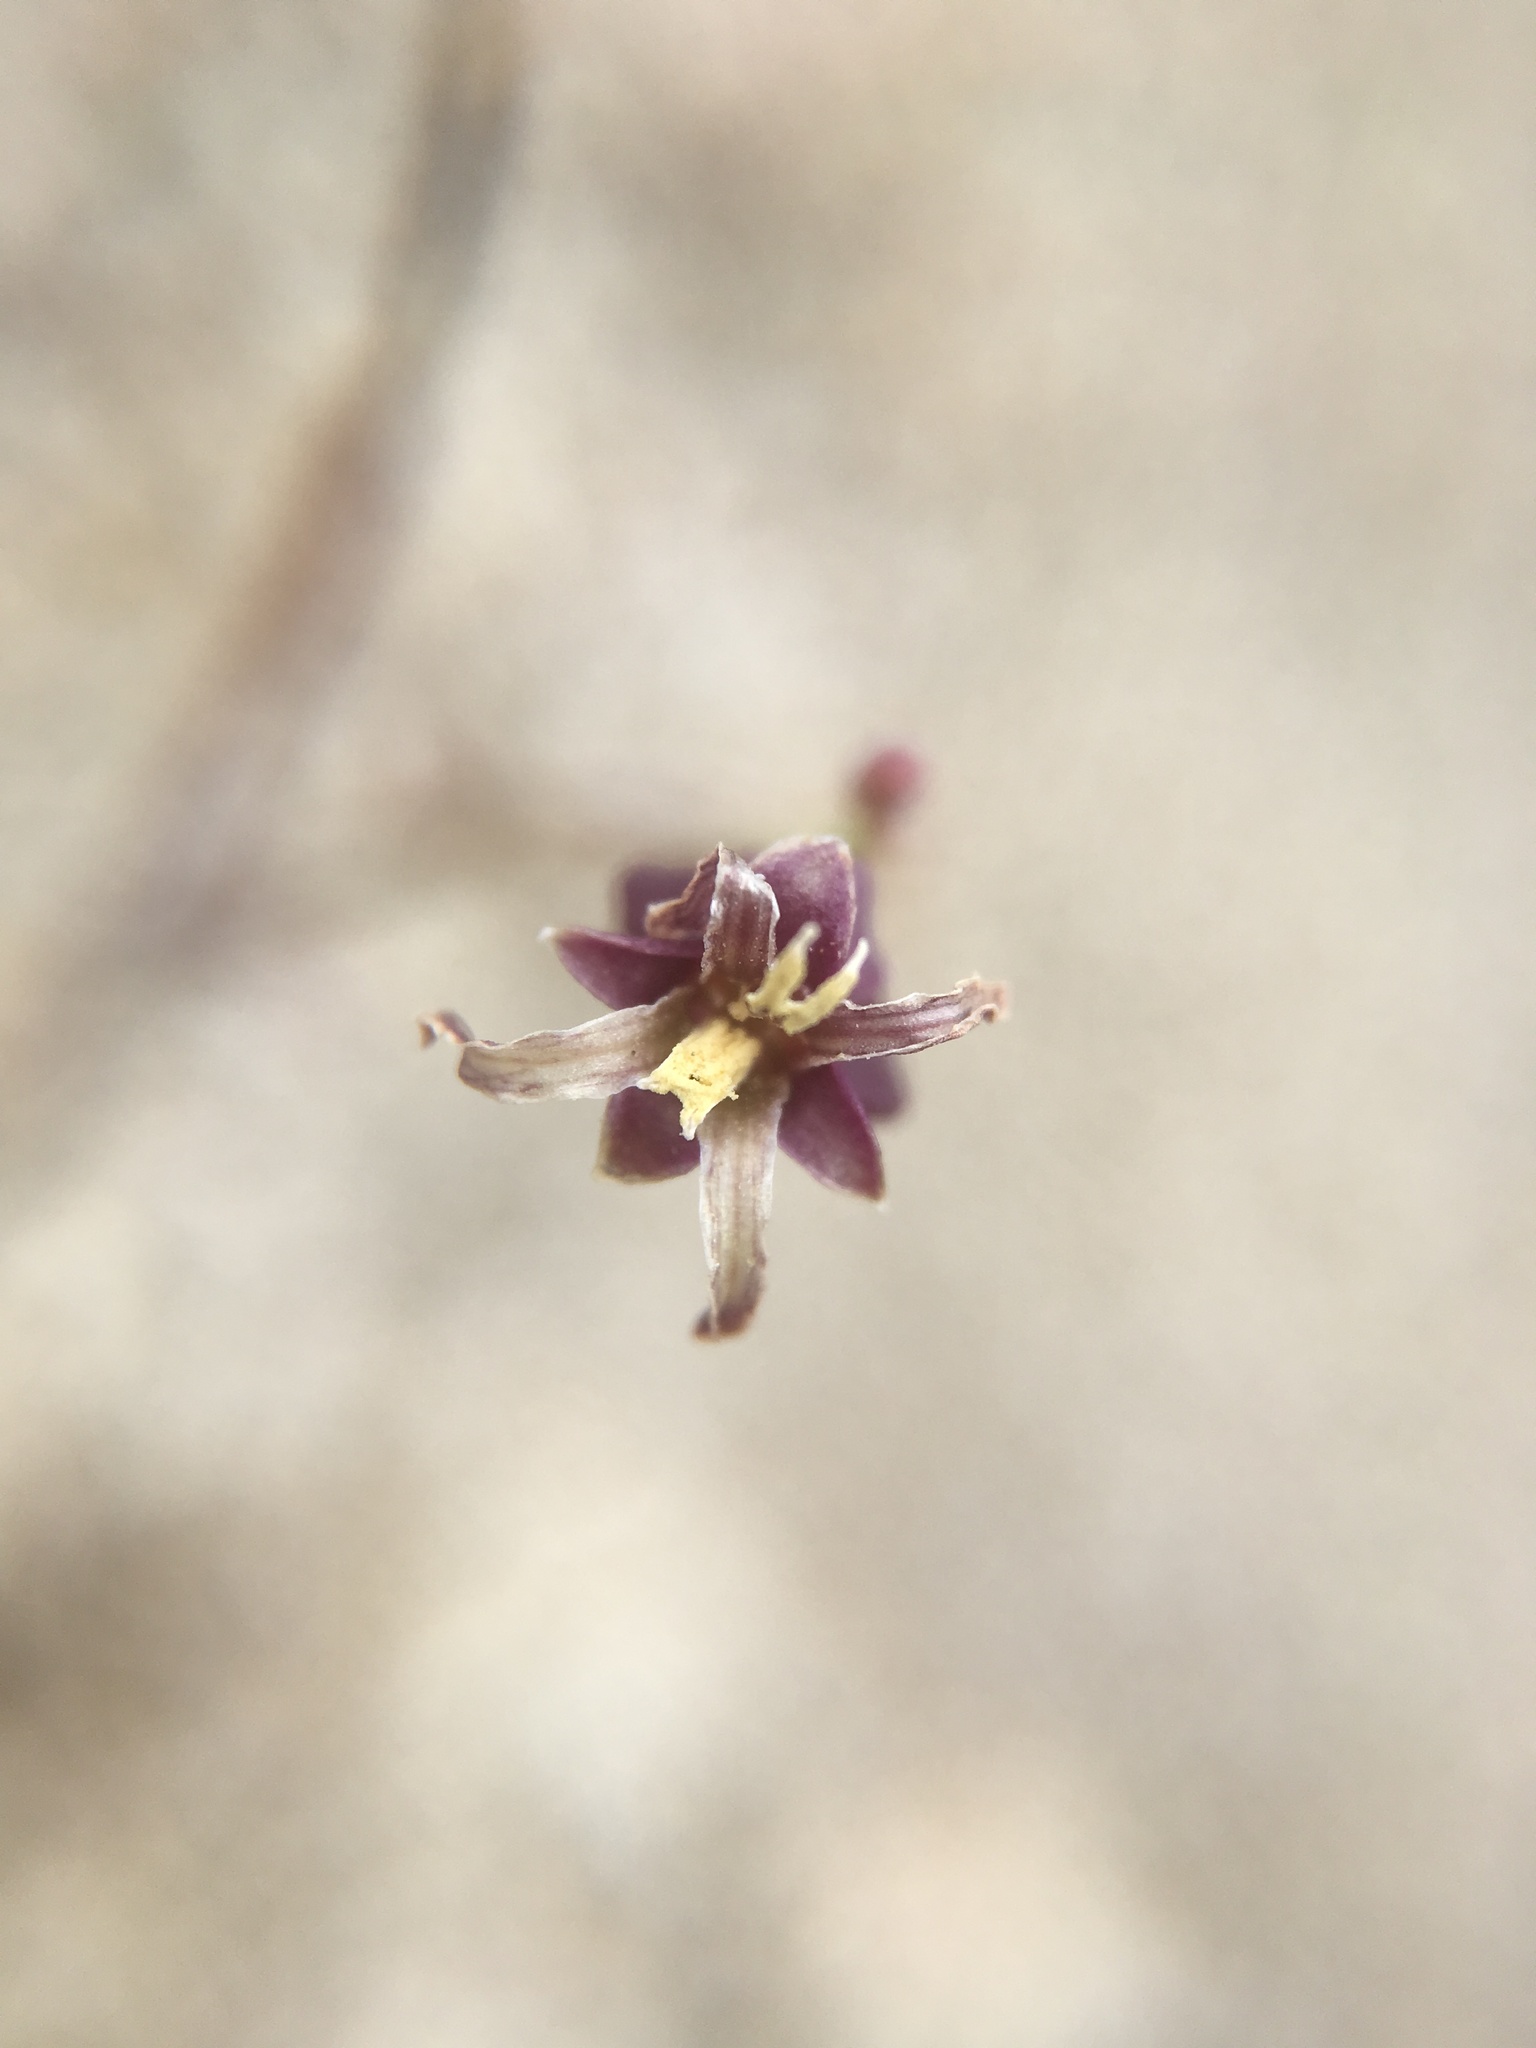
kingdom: Plantae
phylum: Tracheophyta
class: Magnoliopsida
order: Brassicales
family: Brassicaceae
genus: Streptanthus
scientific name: Streptanthus amplexicaulis
